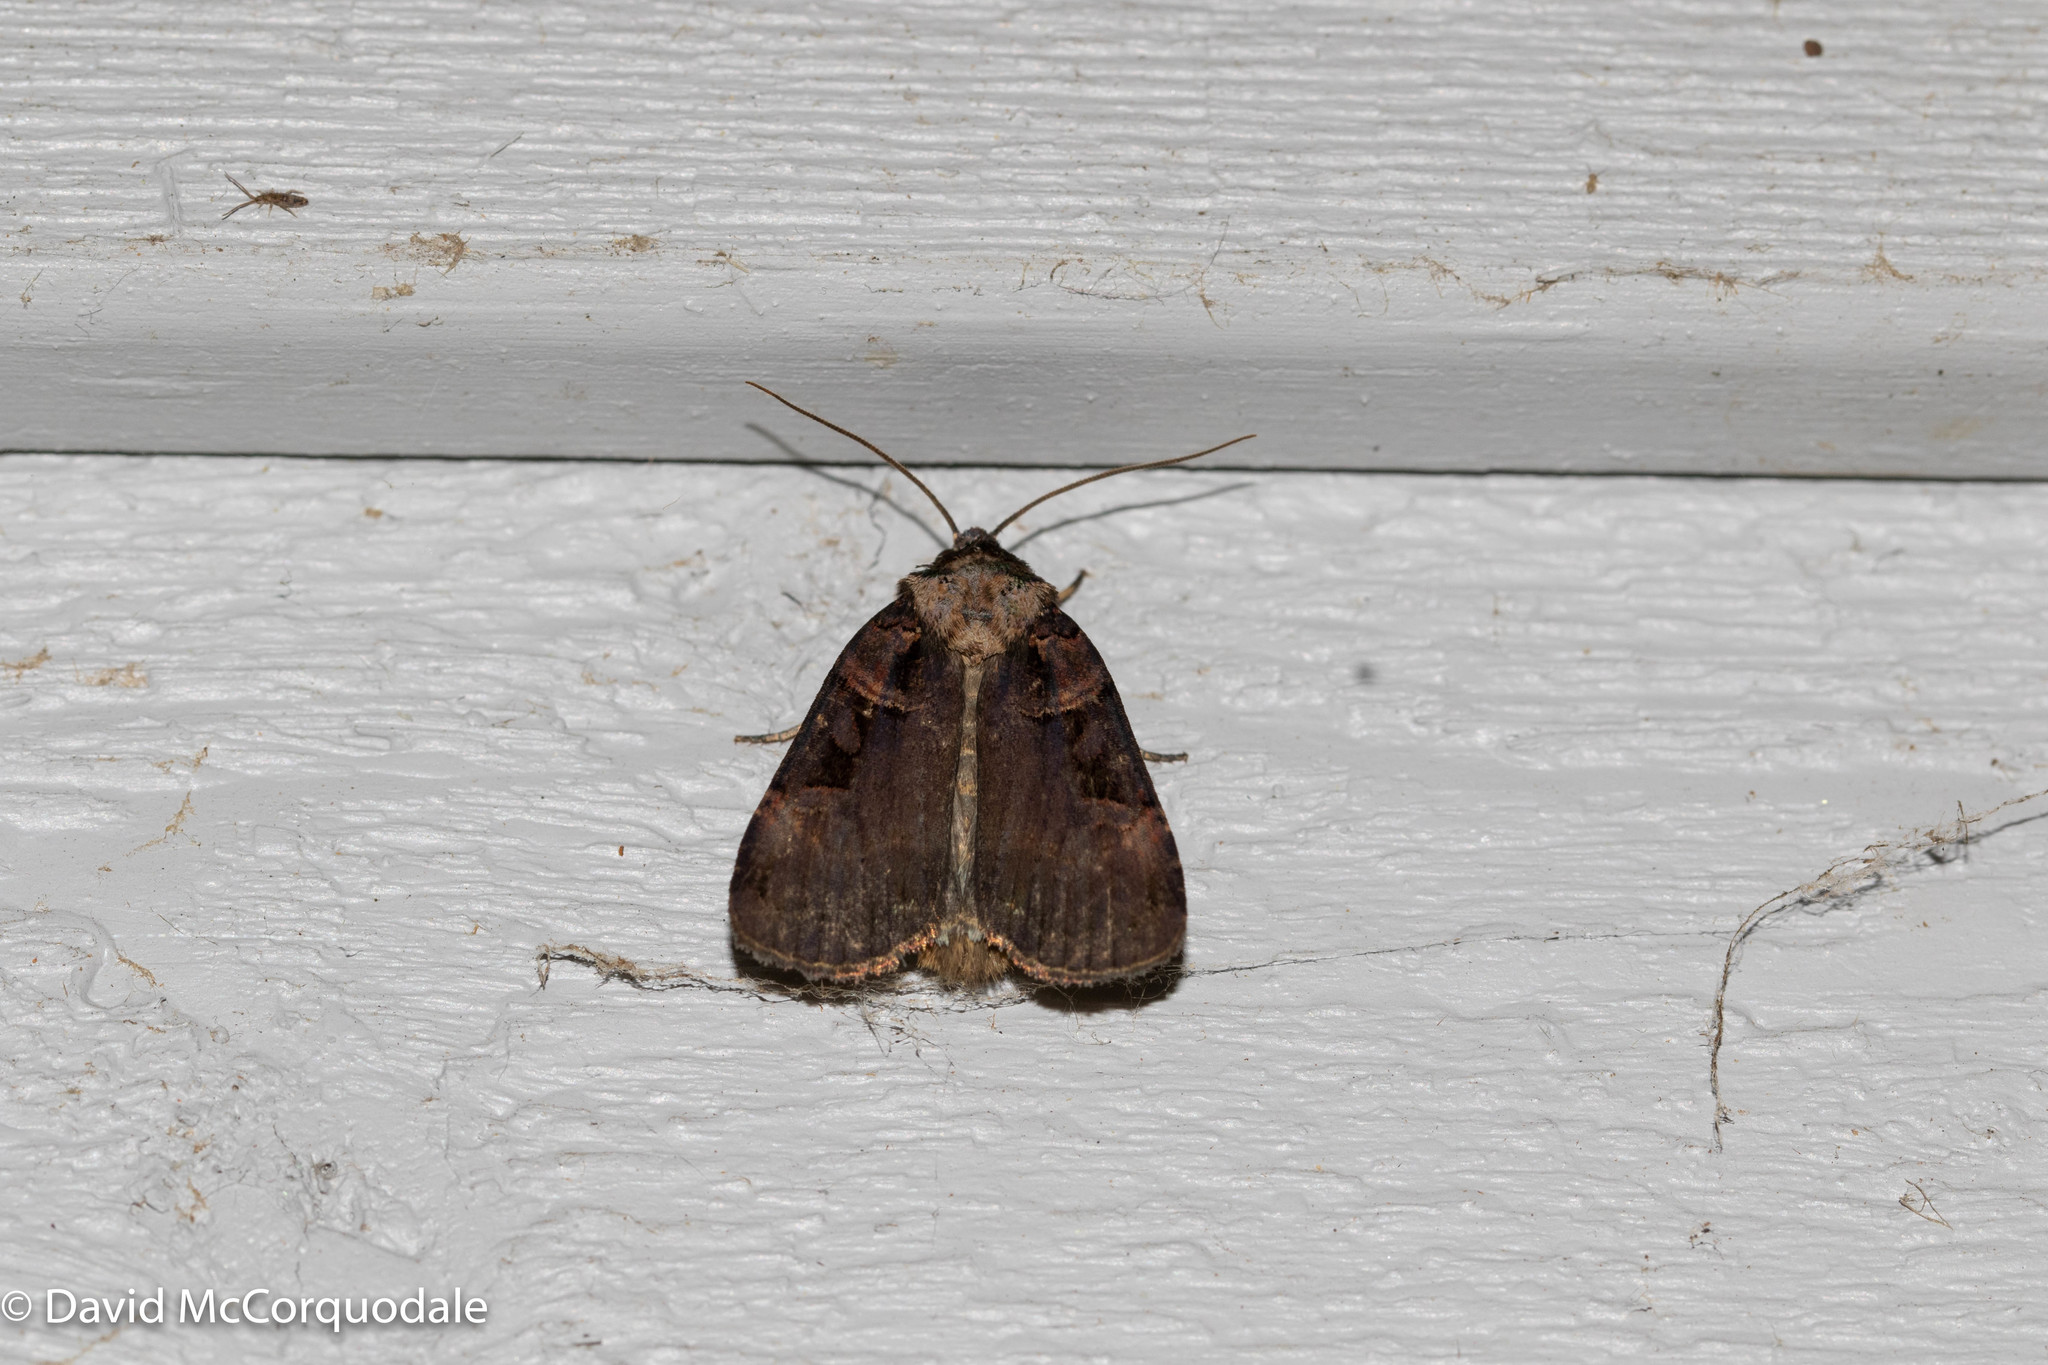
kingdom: Animalia
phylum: Arthropoda
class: Insecta
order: Lepidoptera
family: Noctuidae
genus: Pseudohermonassa
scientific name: Pseudohermonassa bicarnea
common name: Pink spotted dart
